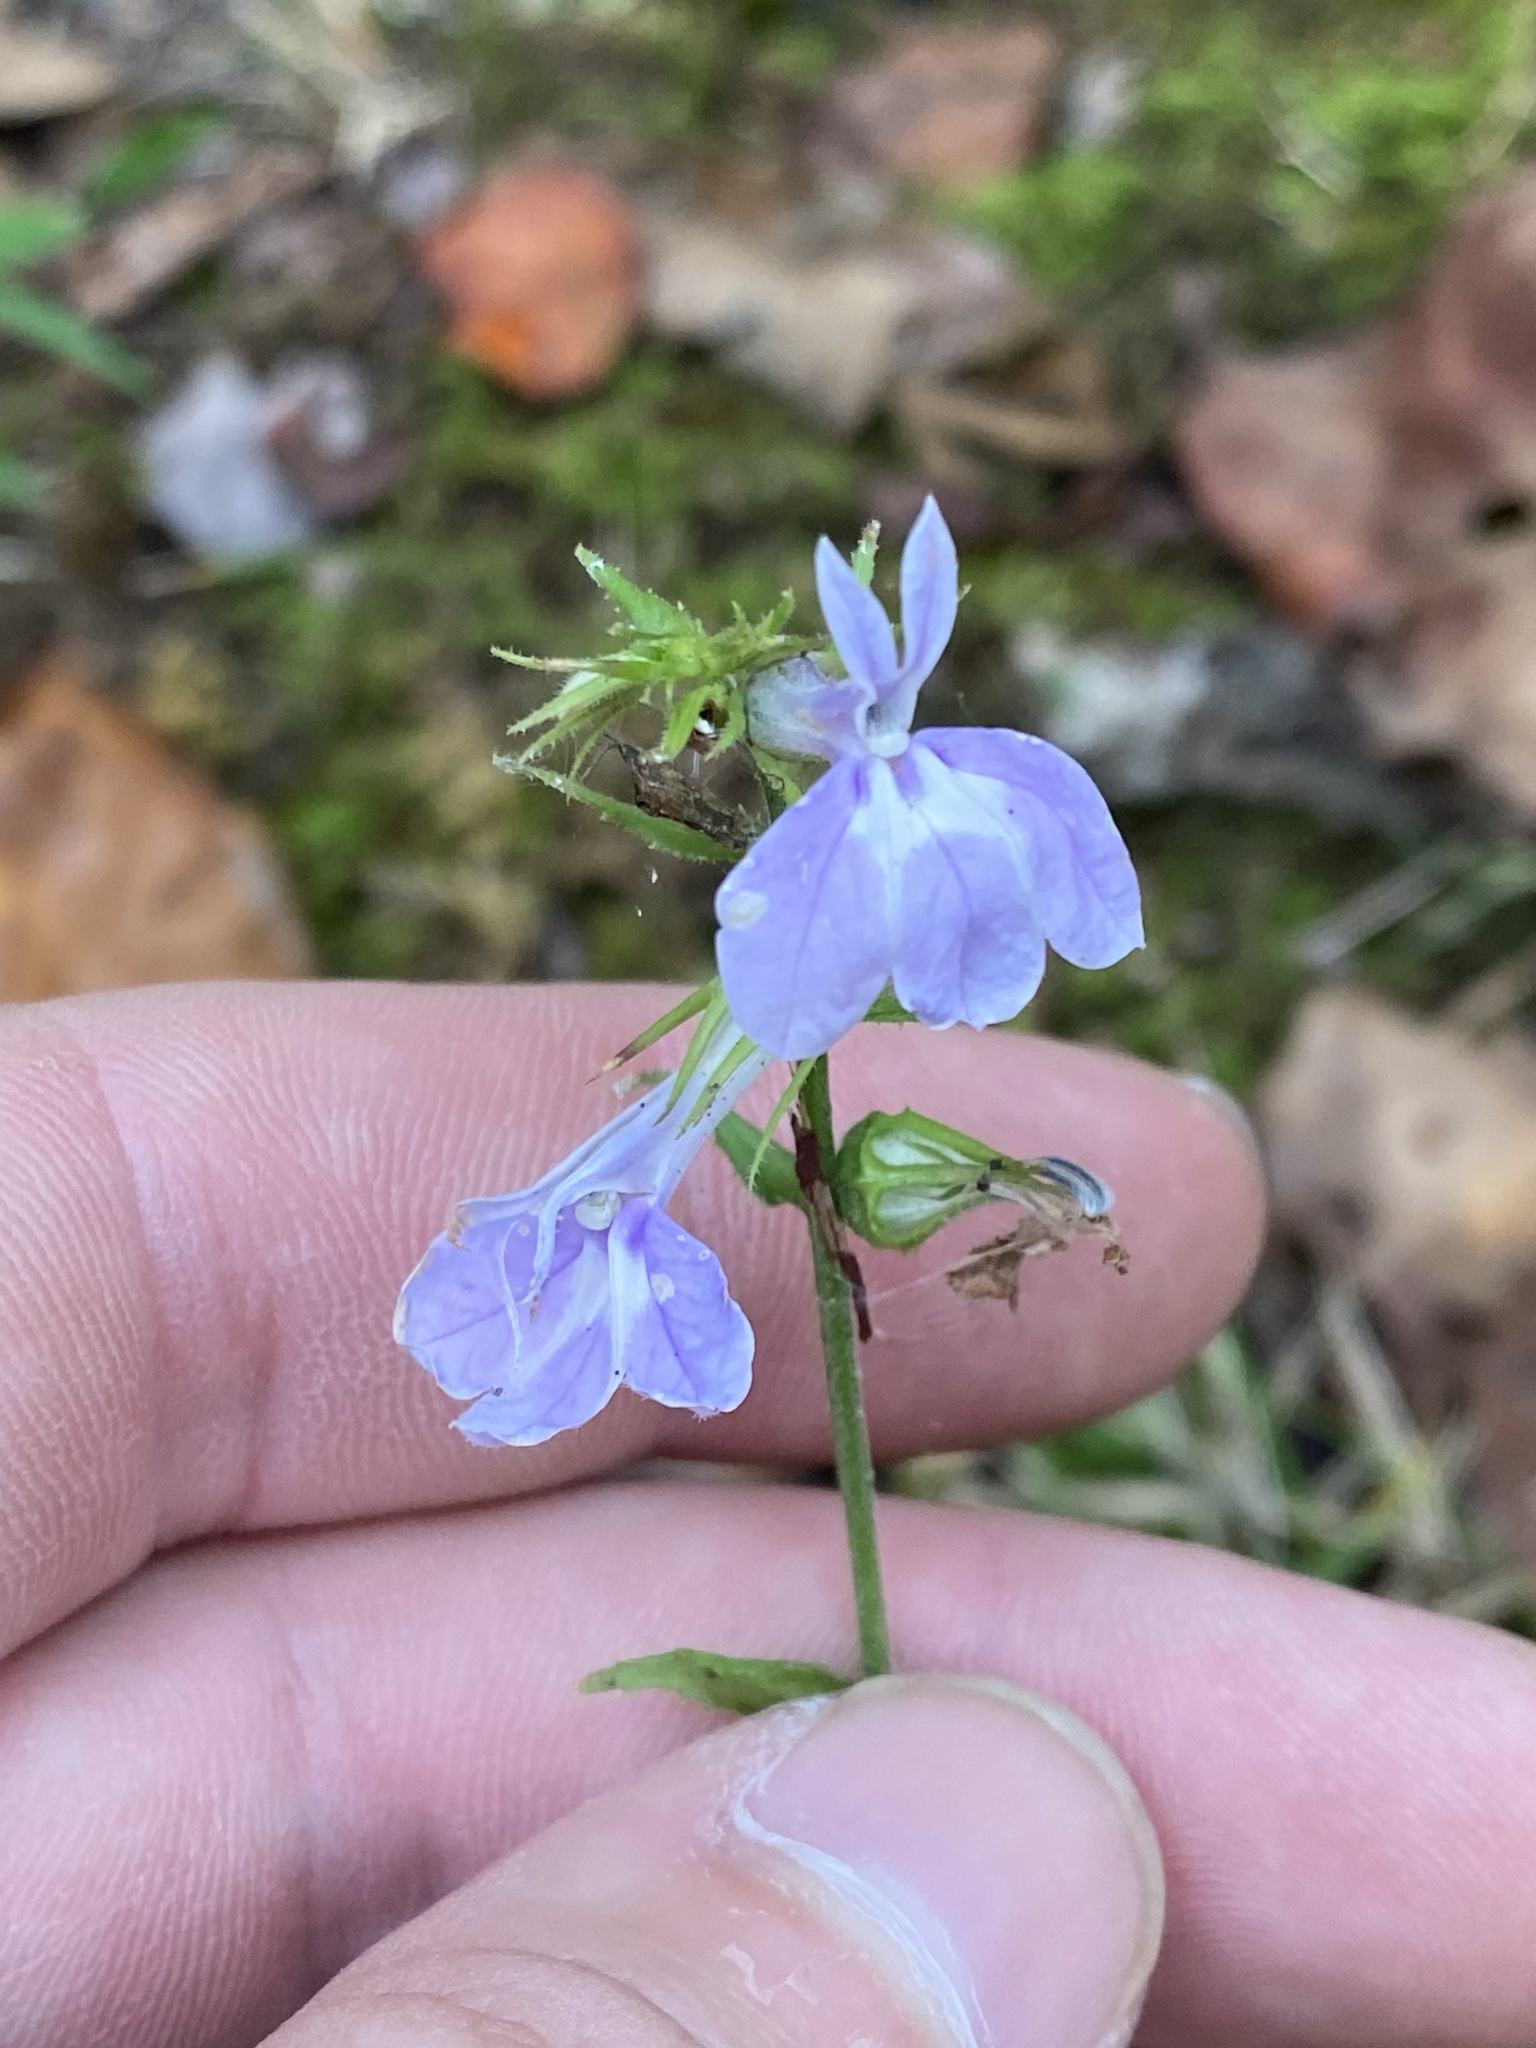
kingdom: Plantae
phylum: Tracheophyta
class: Magnoliopsida
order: Asterales
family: Campanulaceae
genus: Lobelia
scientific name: Lobelia puberula
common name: Purple dewdrop
